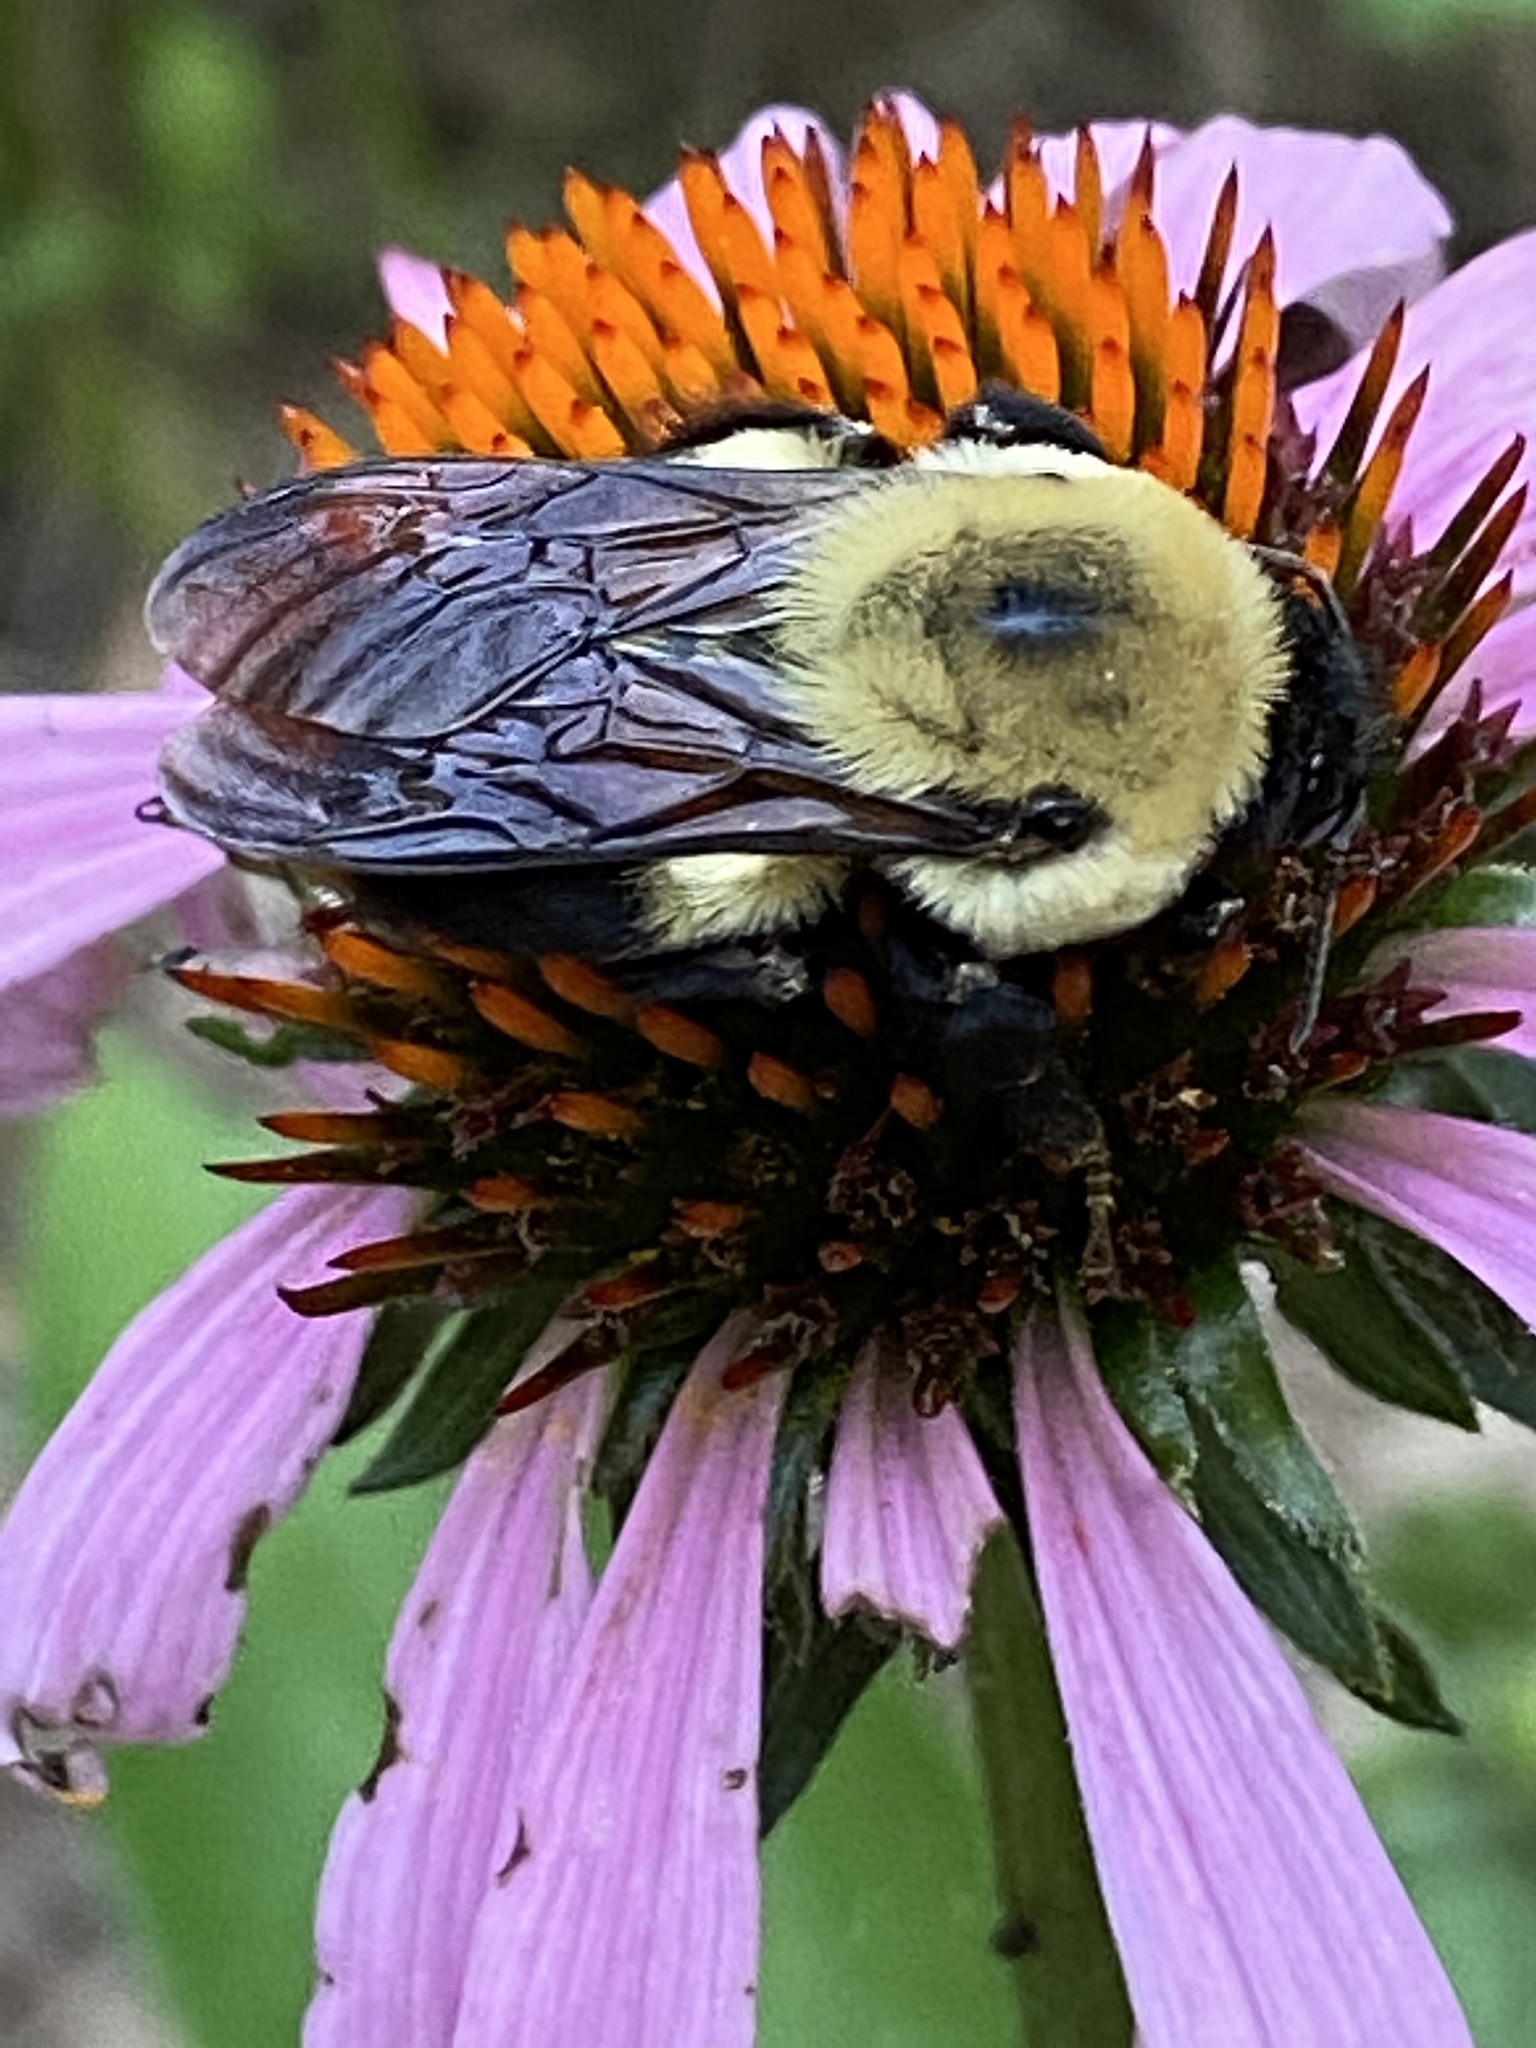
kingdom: Animalia
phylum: Arthropoda
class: Insecta
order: Hymenoptera
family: Apidae
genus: Bombus
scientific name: Bombus griseocollis
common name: Brown-belted bumble bee
